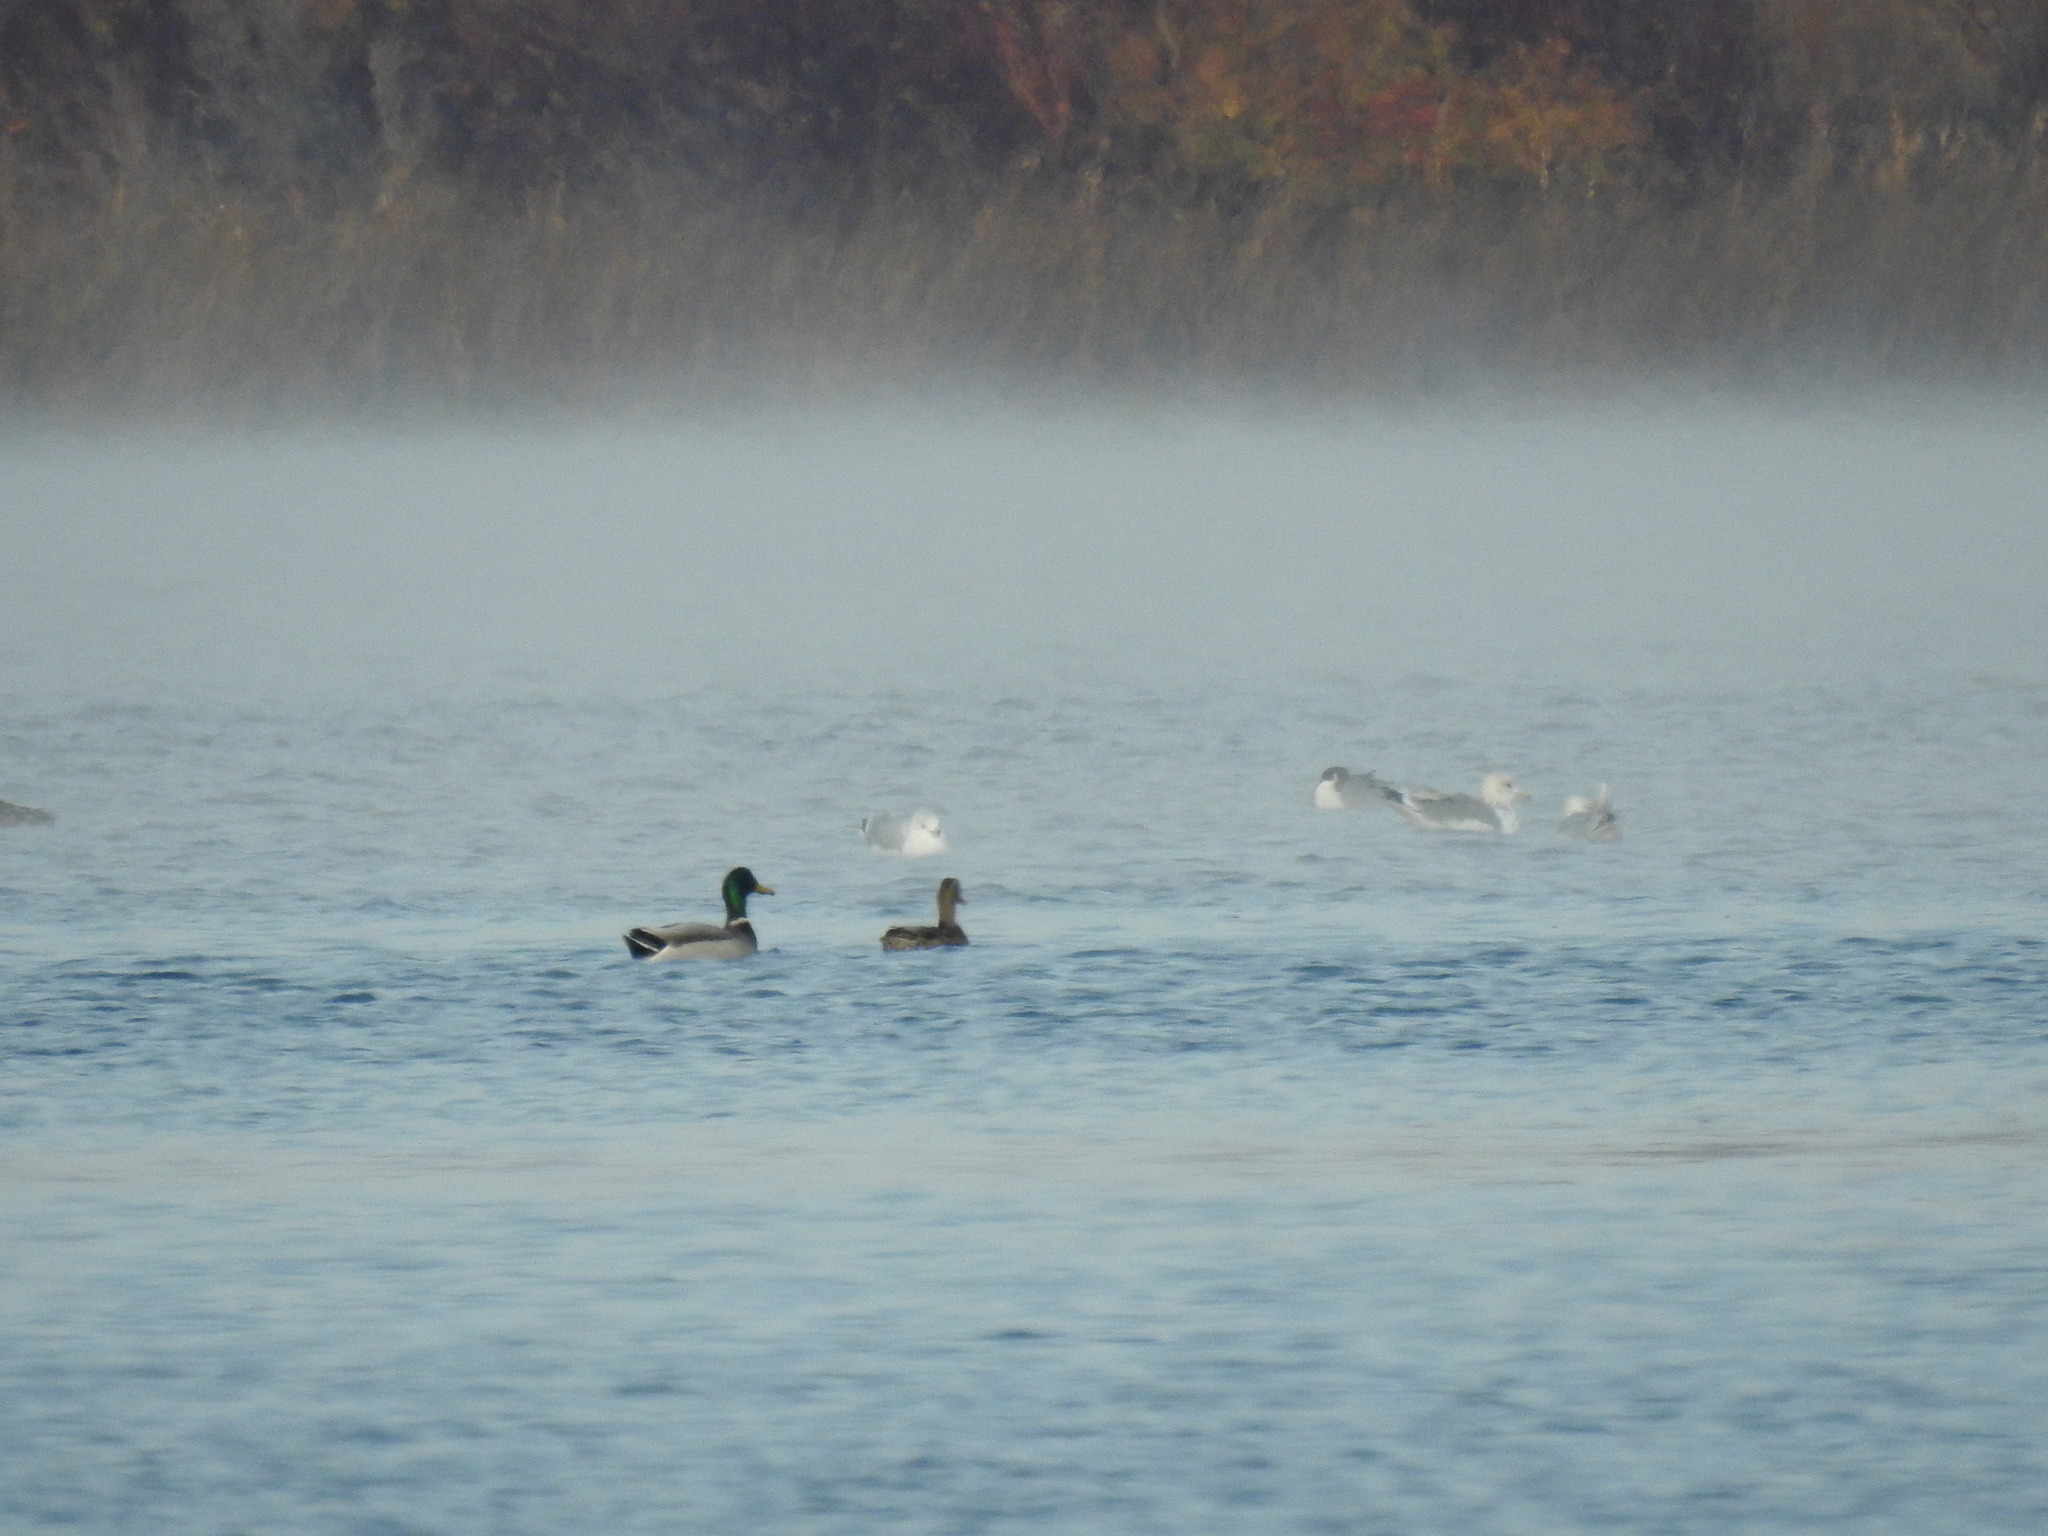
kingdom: Animalia
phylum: Chordata
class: Aves
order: Anseriformes
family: Anatidae
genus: Anas
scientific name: Anas platyrhynchos
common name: Mallard
